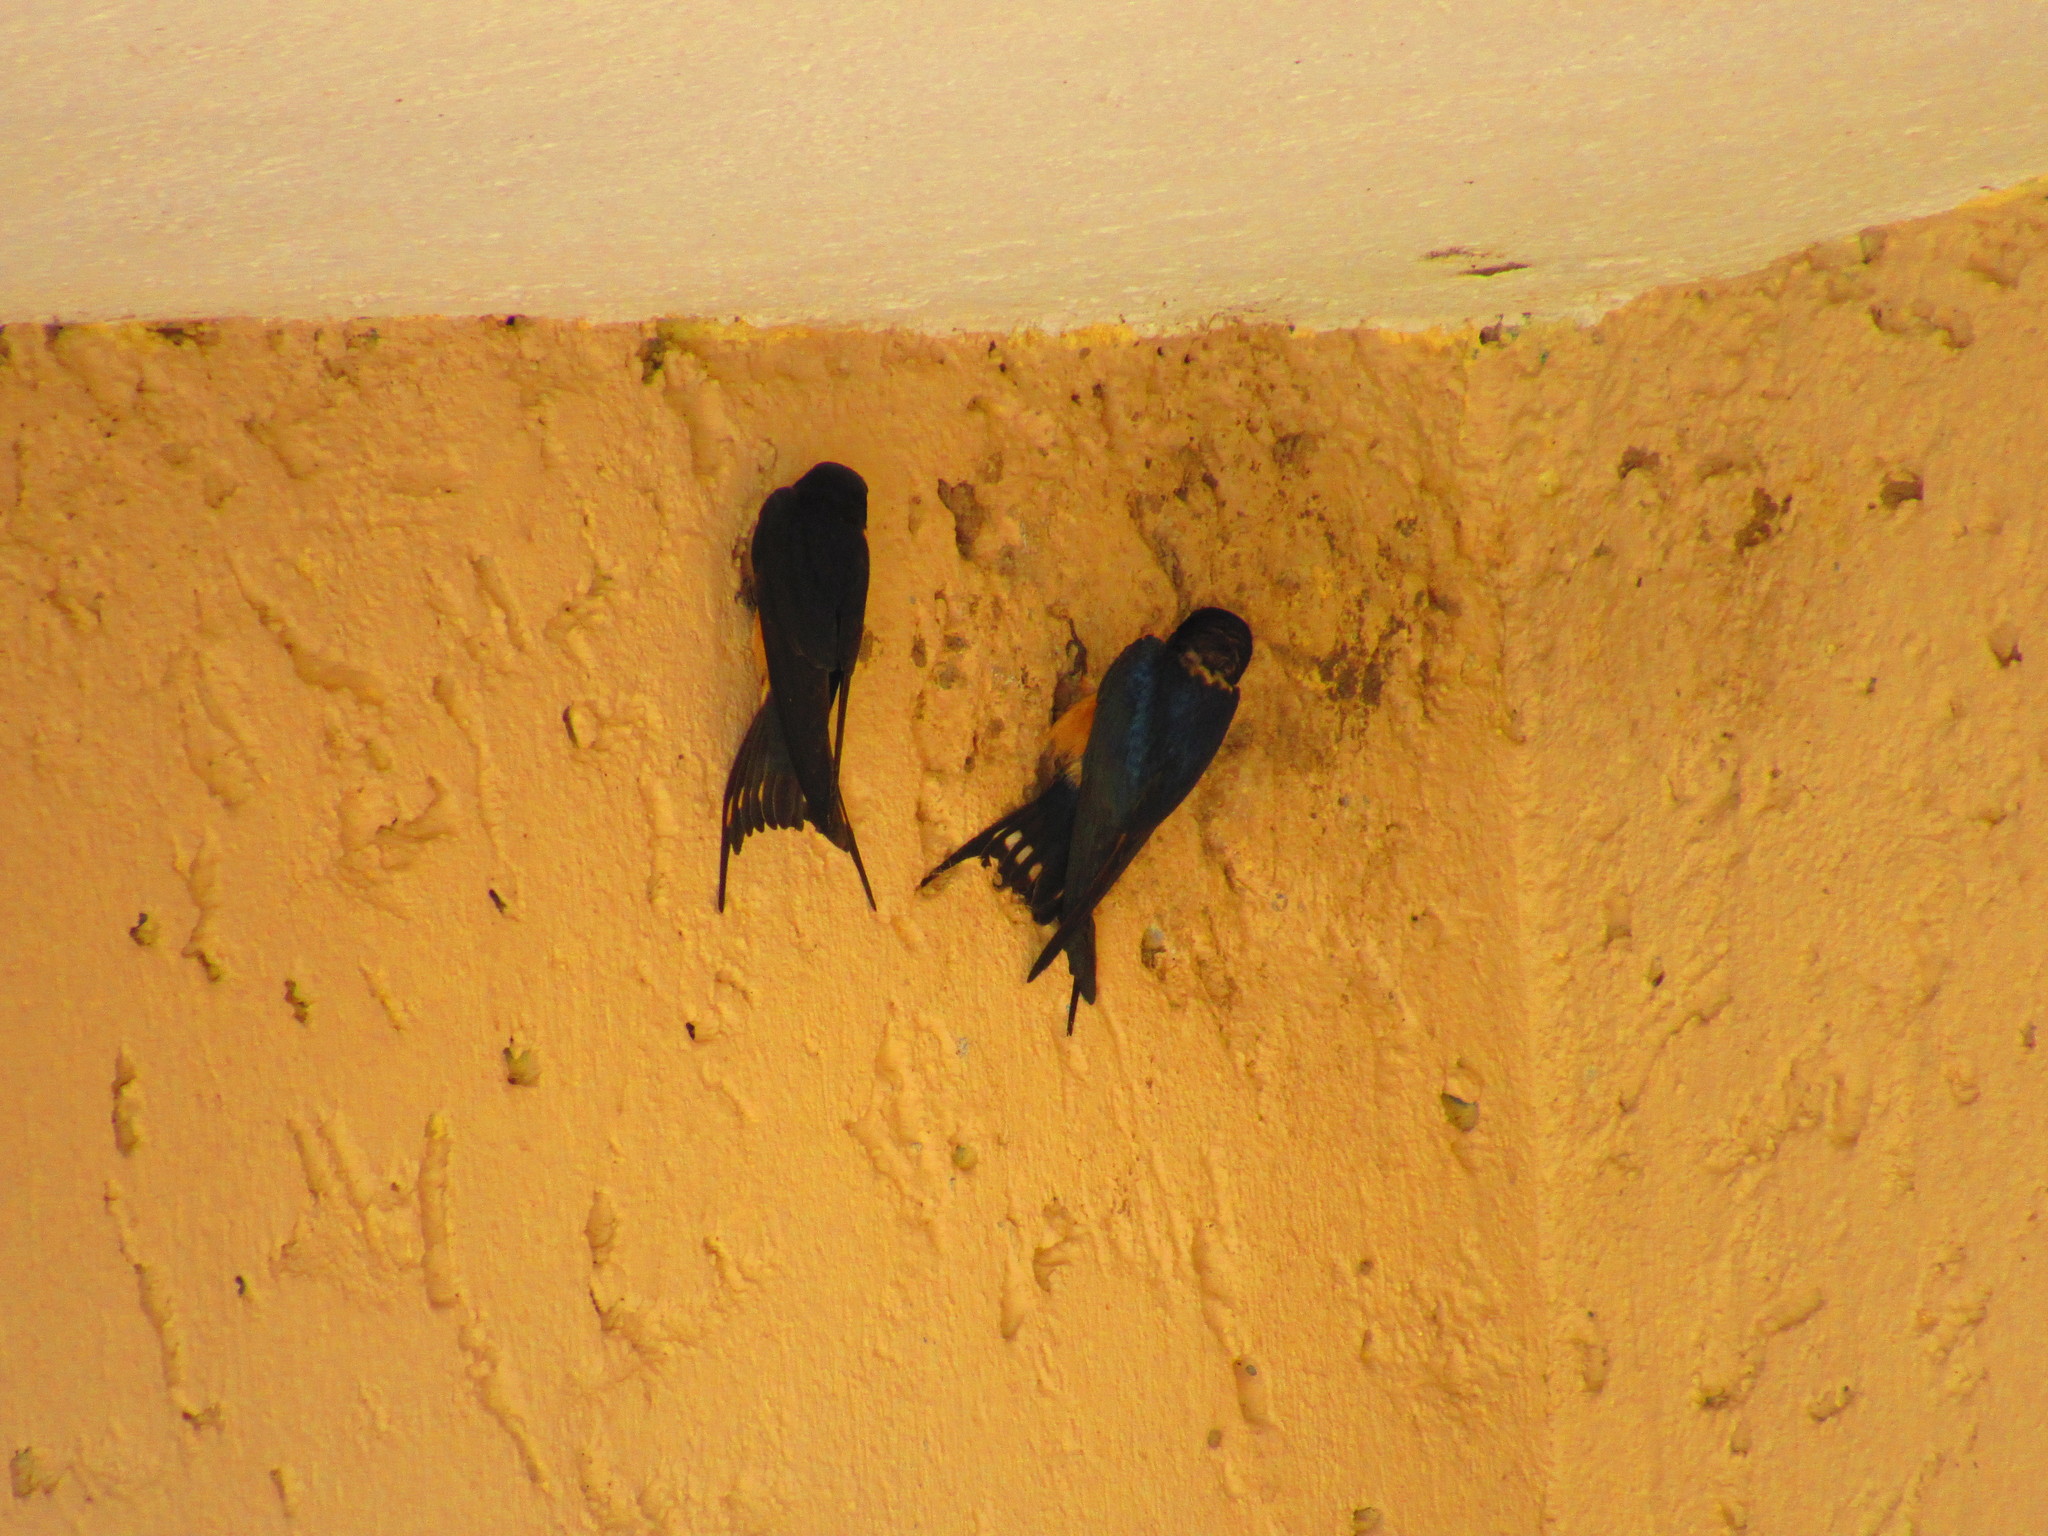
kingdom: Animalia
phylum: Chordata
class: Aves
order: Passeriformes
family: Hirundinidae
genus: Hirundo
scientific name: Hirundo rustica
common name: Barn swallow
